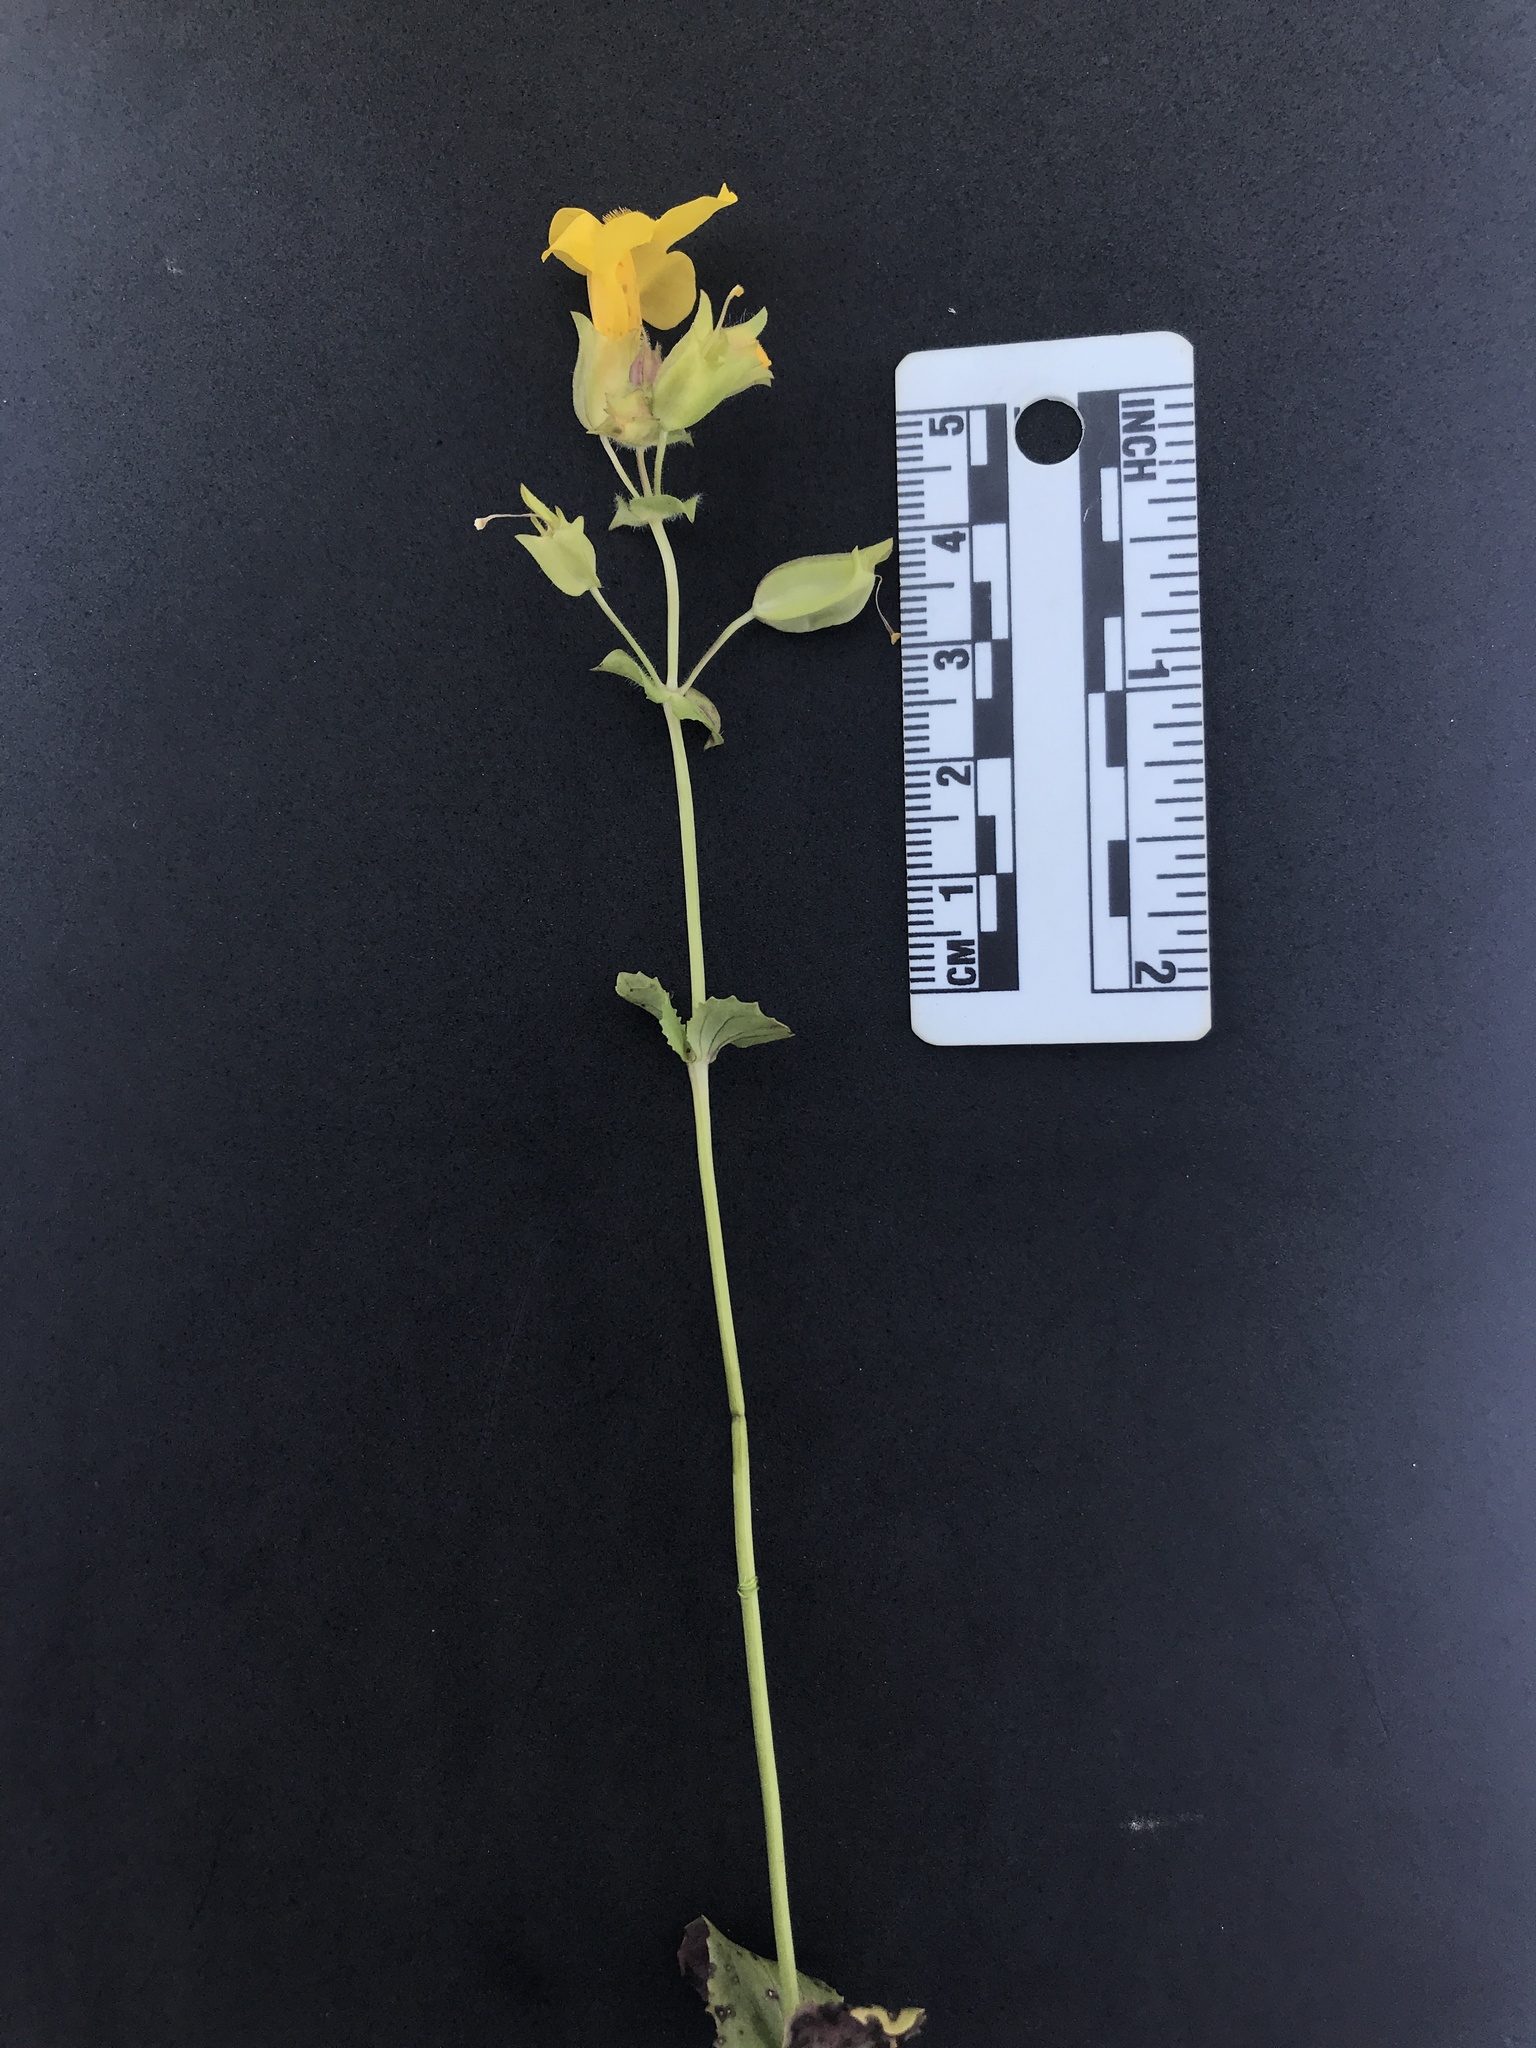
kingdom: Plantae
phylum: Tracheophyta
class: Magnoliopsida
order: Lamiales
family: Phrymaceae
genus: Erythranthe
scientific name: Erythranthe microphylla
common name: Bentham's monkeyflower
